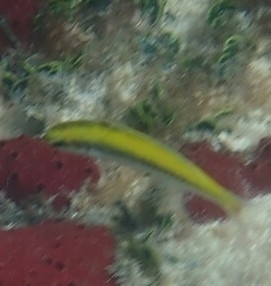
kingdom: Animalia
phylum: Chordata
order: Perciformes
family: Labridae
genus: Thalassoma
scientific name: Thalassoma bifasciatum
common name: Bluehead wrasse
